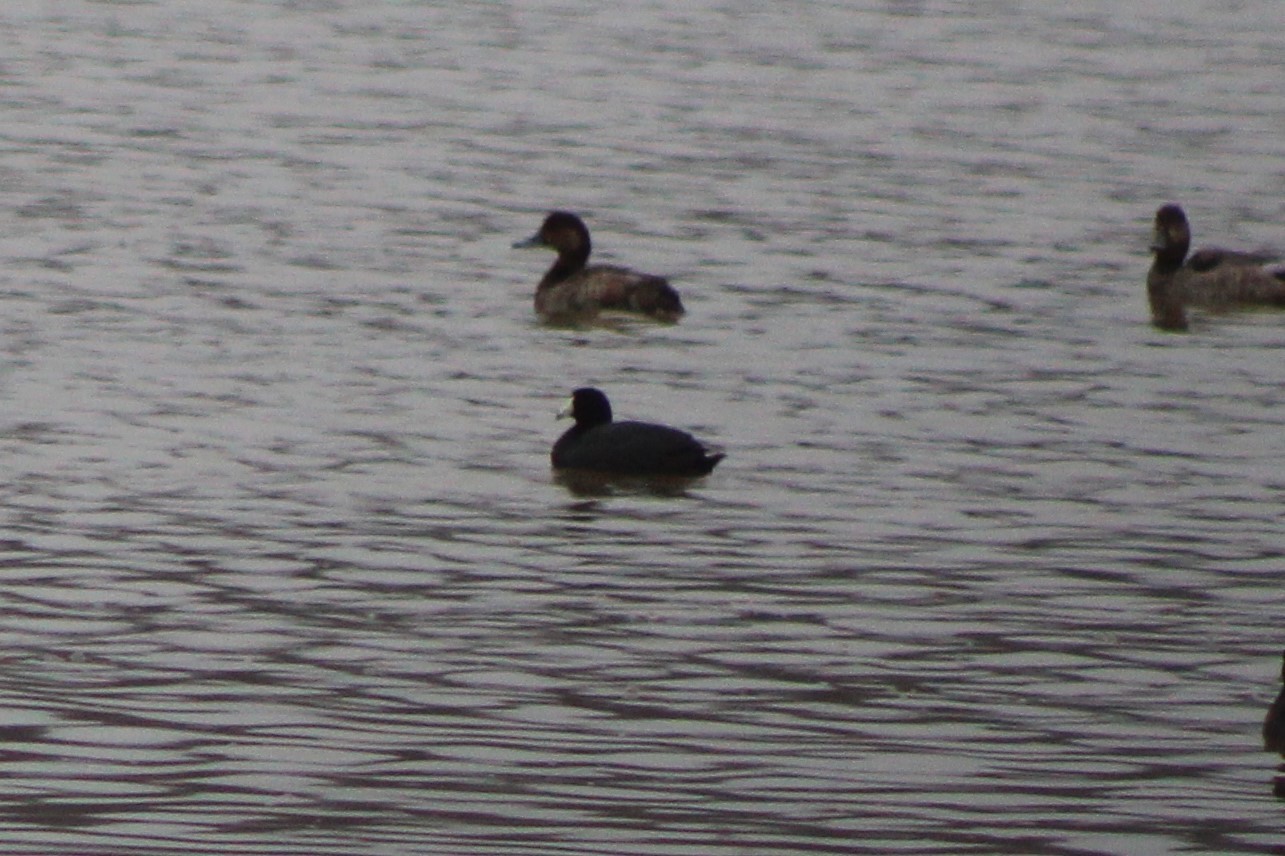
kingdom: Animalia
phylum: Chordata
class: Aves
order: Gruiformes
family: Rallidae
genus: Fulica
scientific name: Fulica americana
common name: American coot
